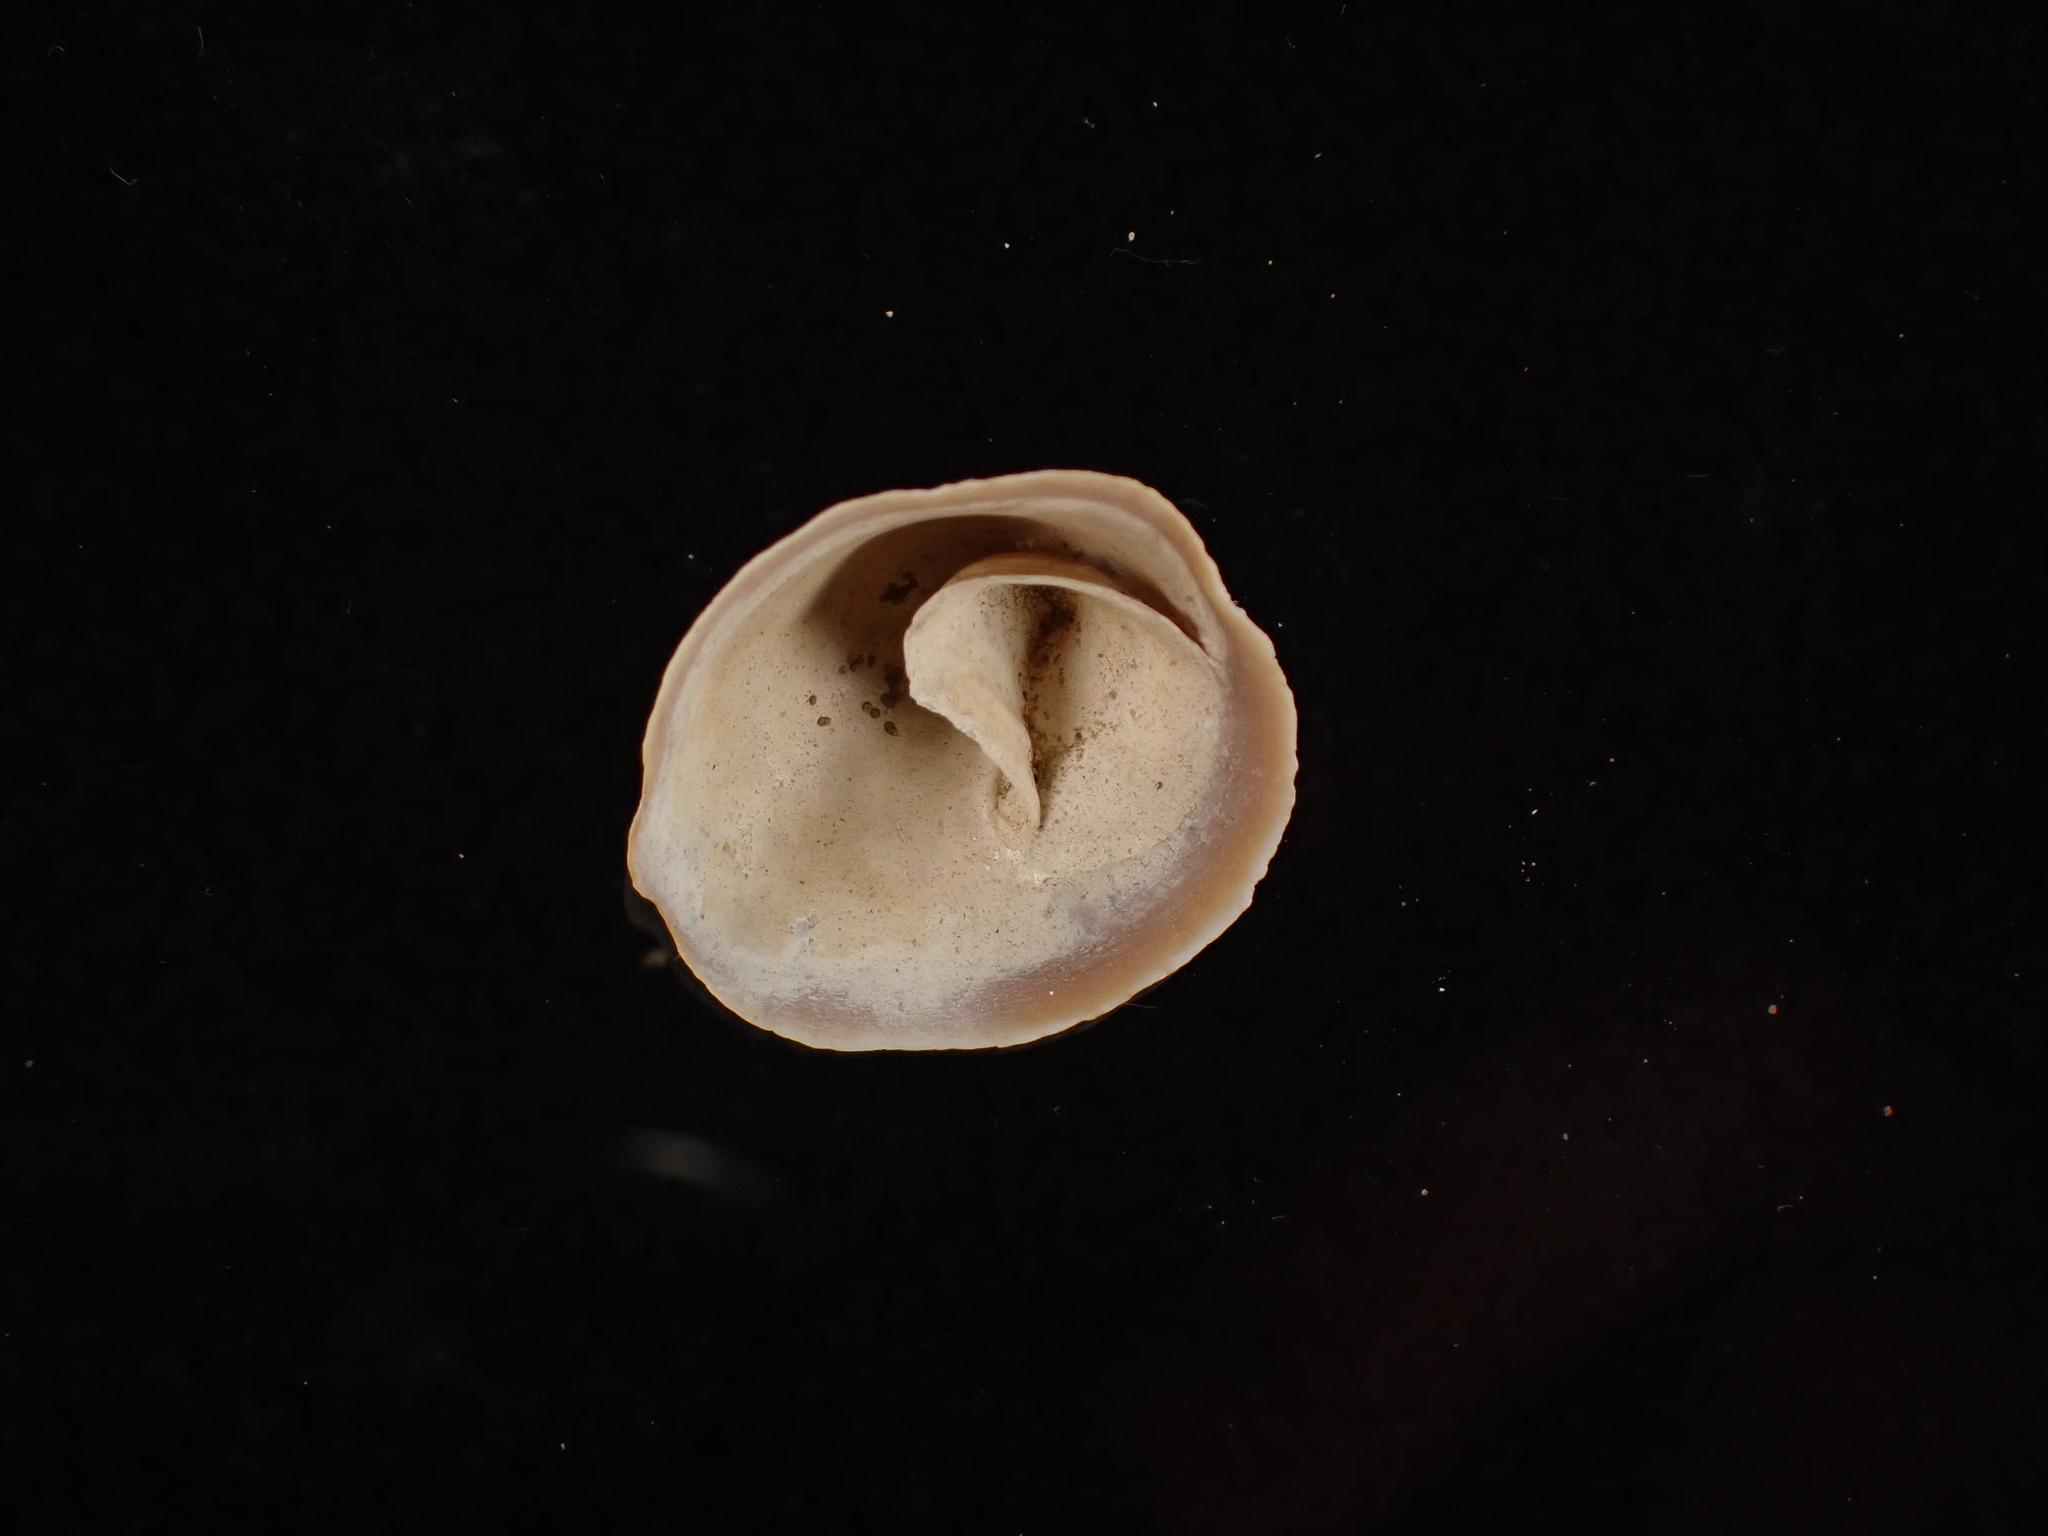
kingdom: Animalia
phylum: Mollusca
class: Gastropoda
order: Littorinimorpha
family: Calyptraeidae
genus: Crucibulum
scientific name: Crucibulum striatum
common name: Striate cup-and -saucer
